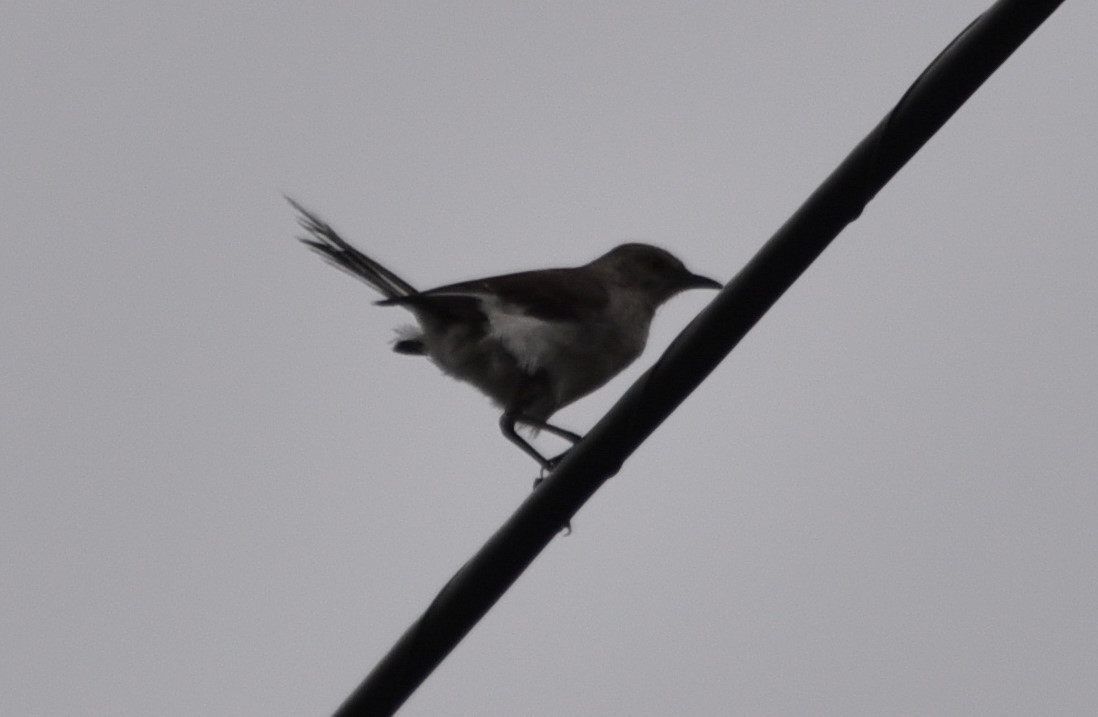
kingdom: Animalia
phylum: Chordata
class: Aves
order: Passeriformes
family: Mimidae
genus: Mimus
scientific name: Mimus polyglottos
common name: Northern mockingbird
